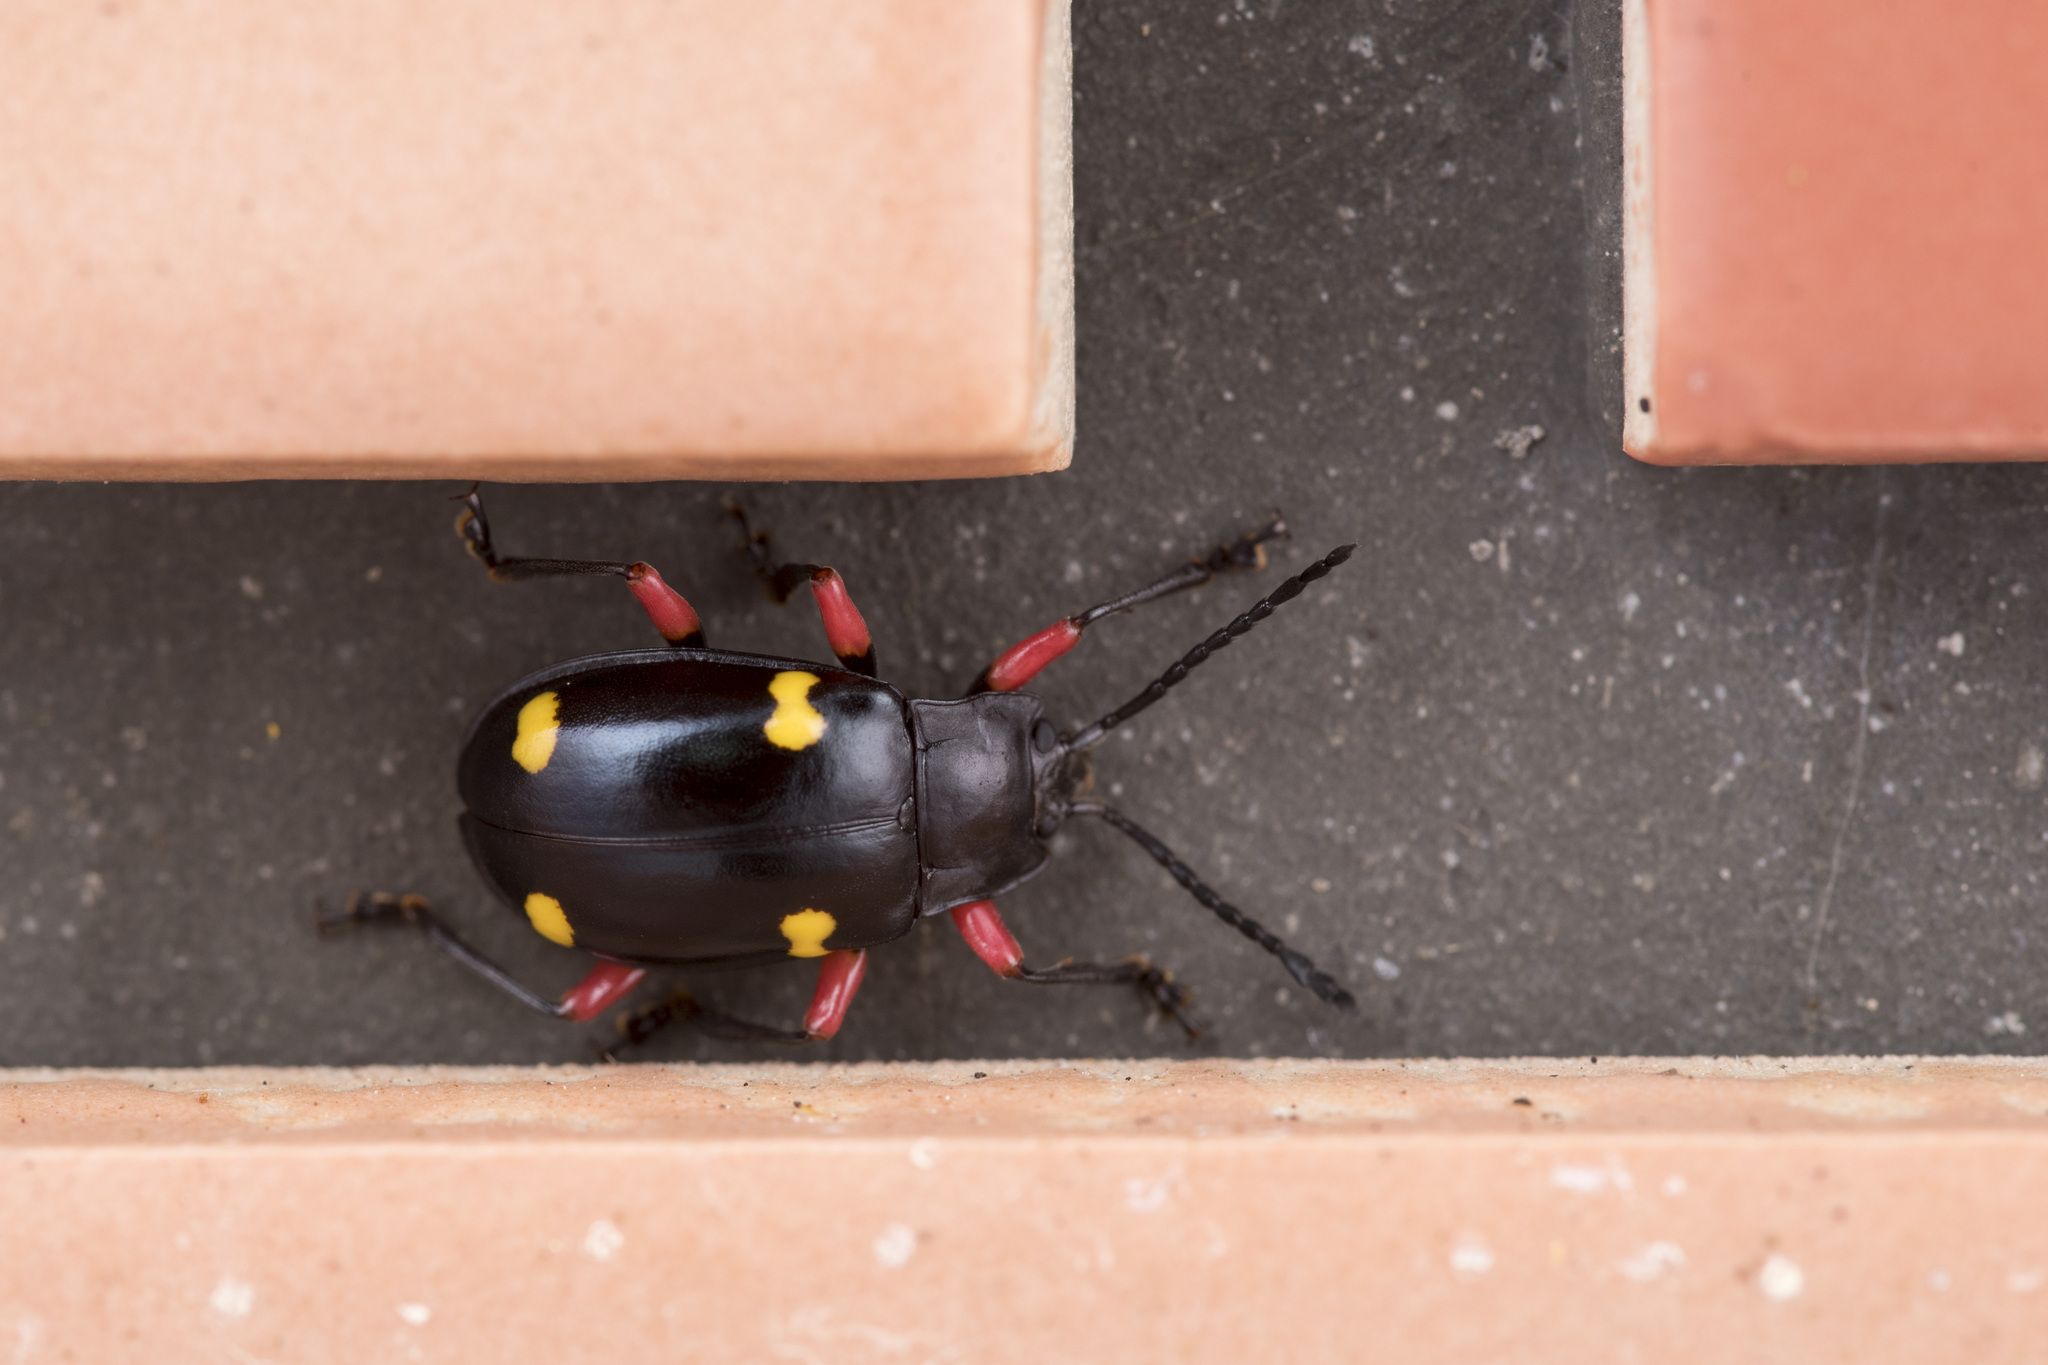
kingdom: Animalia
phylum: Arthropoda
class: Insecta
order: Coleoptera
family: Endomychidae
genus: Eumorphus
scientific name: Eumorphus quadriguttatus
